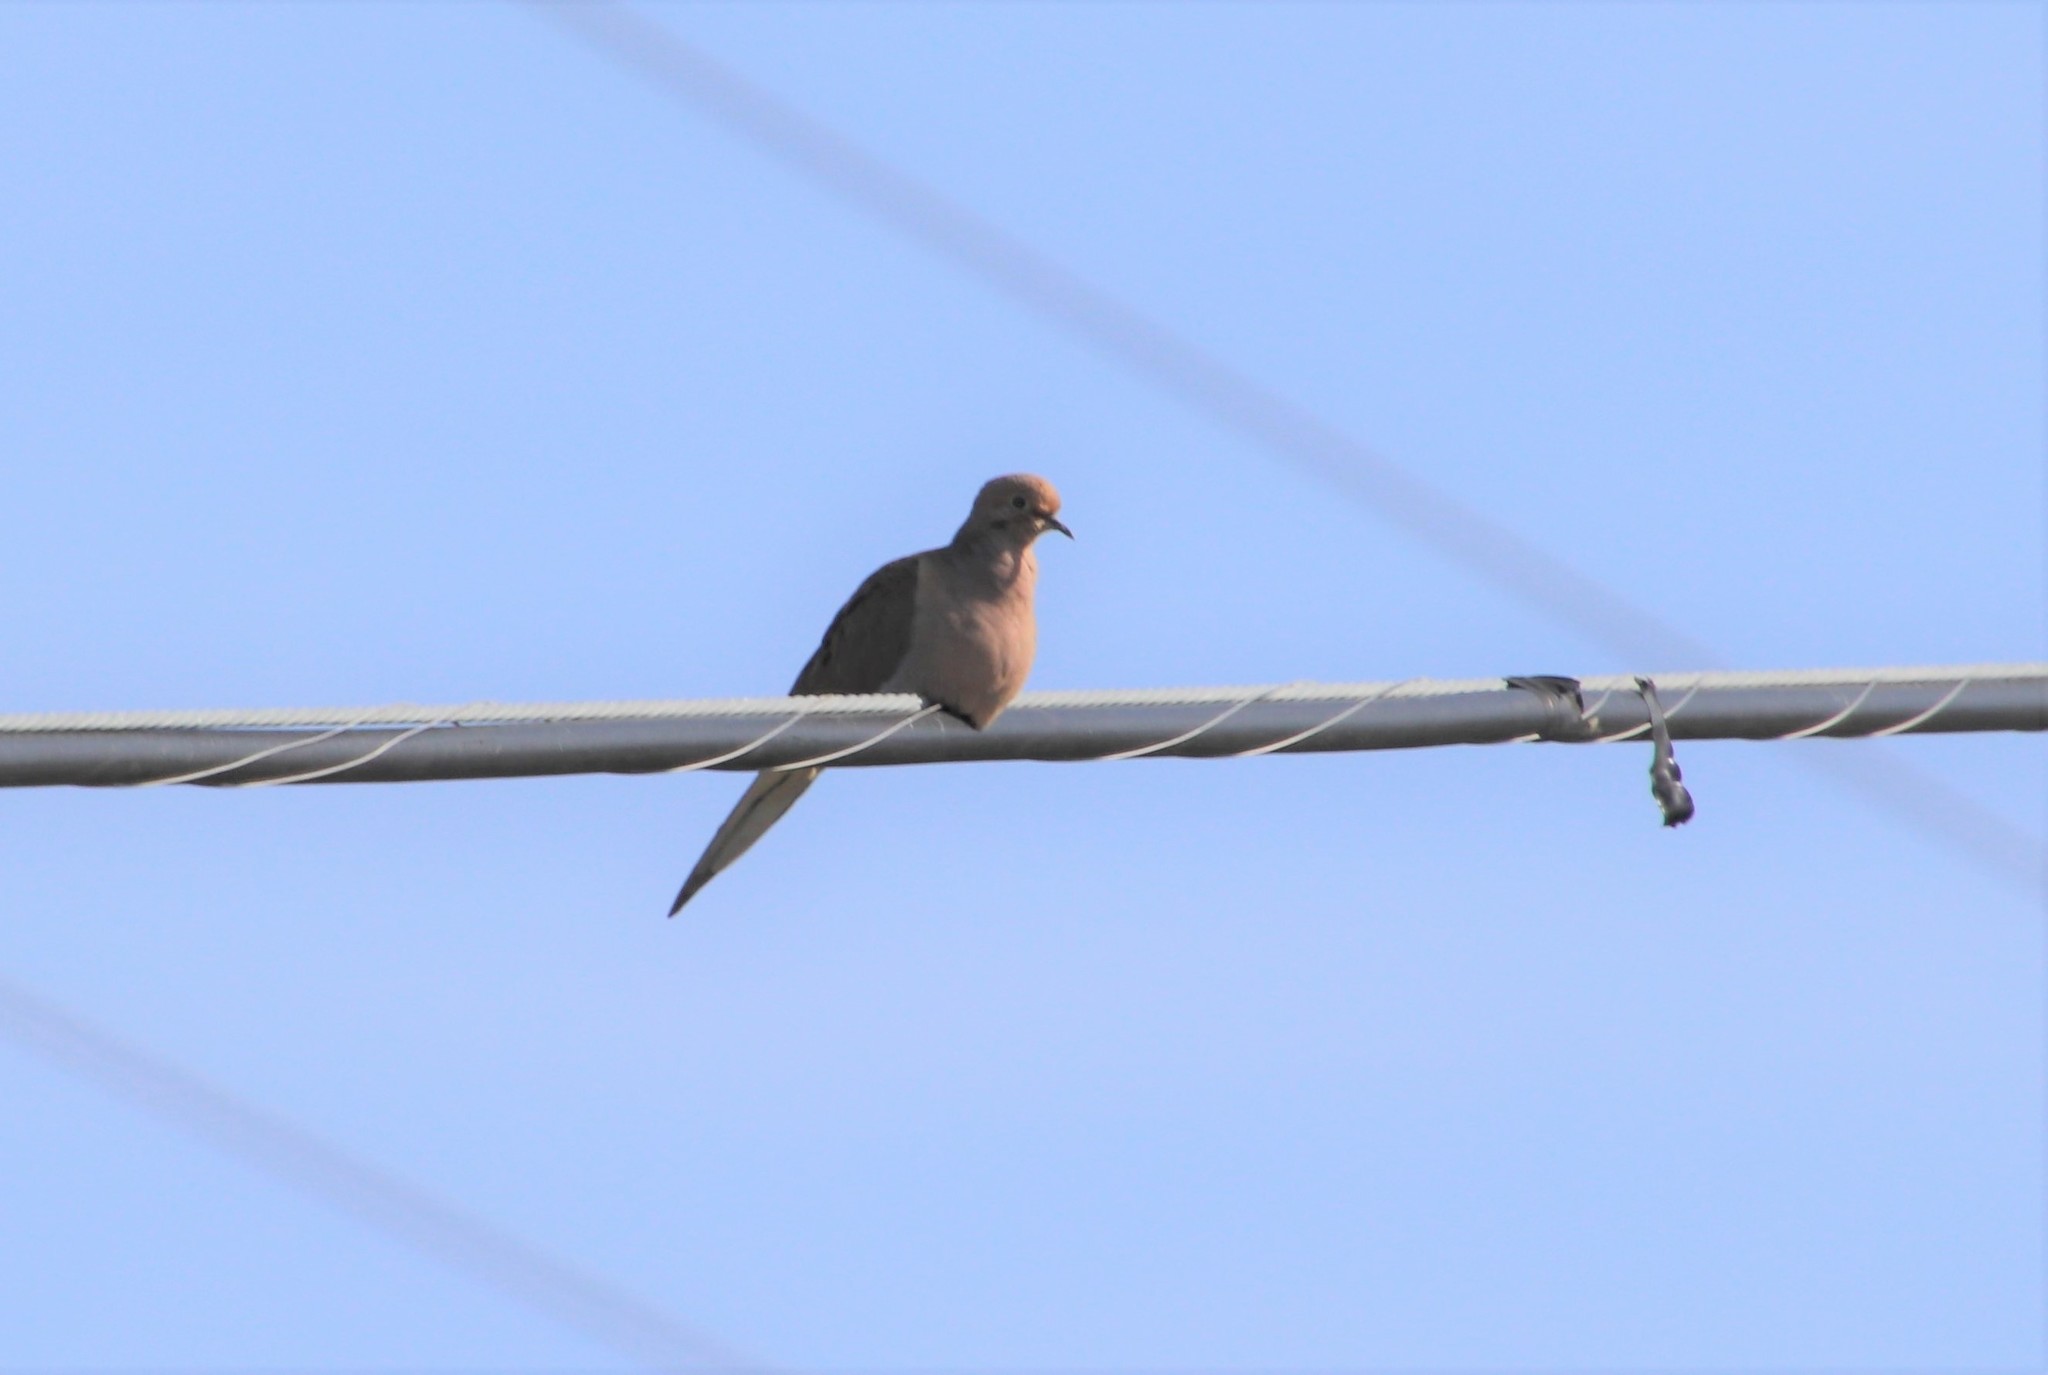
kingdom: Animalia
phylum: Chordata
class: Aves
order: Columbiformes
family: Columbidae
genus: Zenaida
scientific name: Zenaida macroura
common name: Mourning dove
